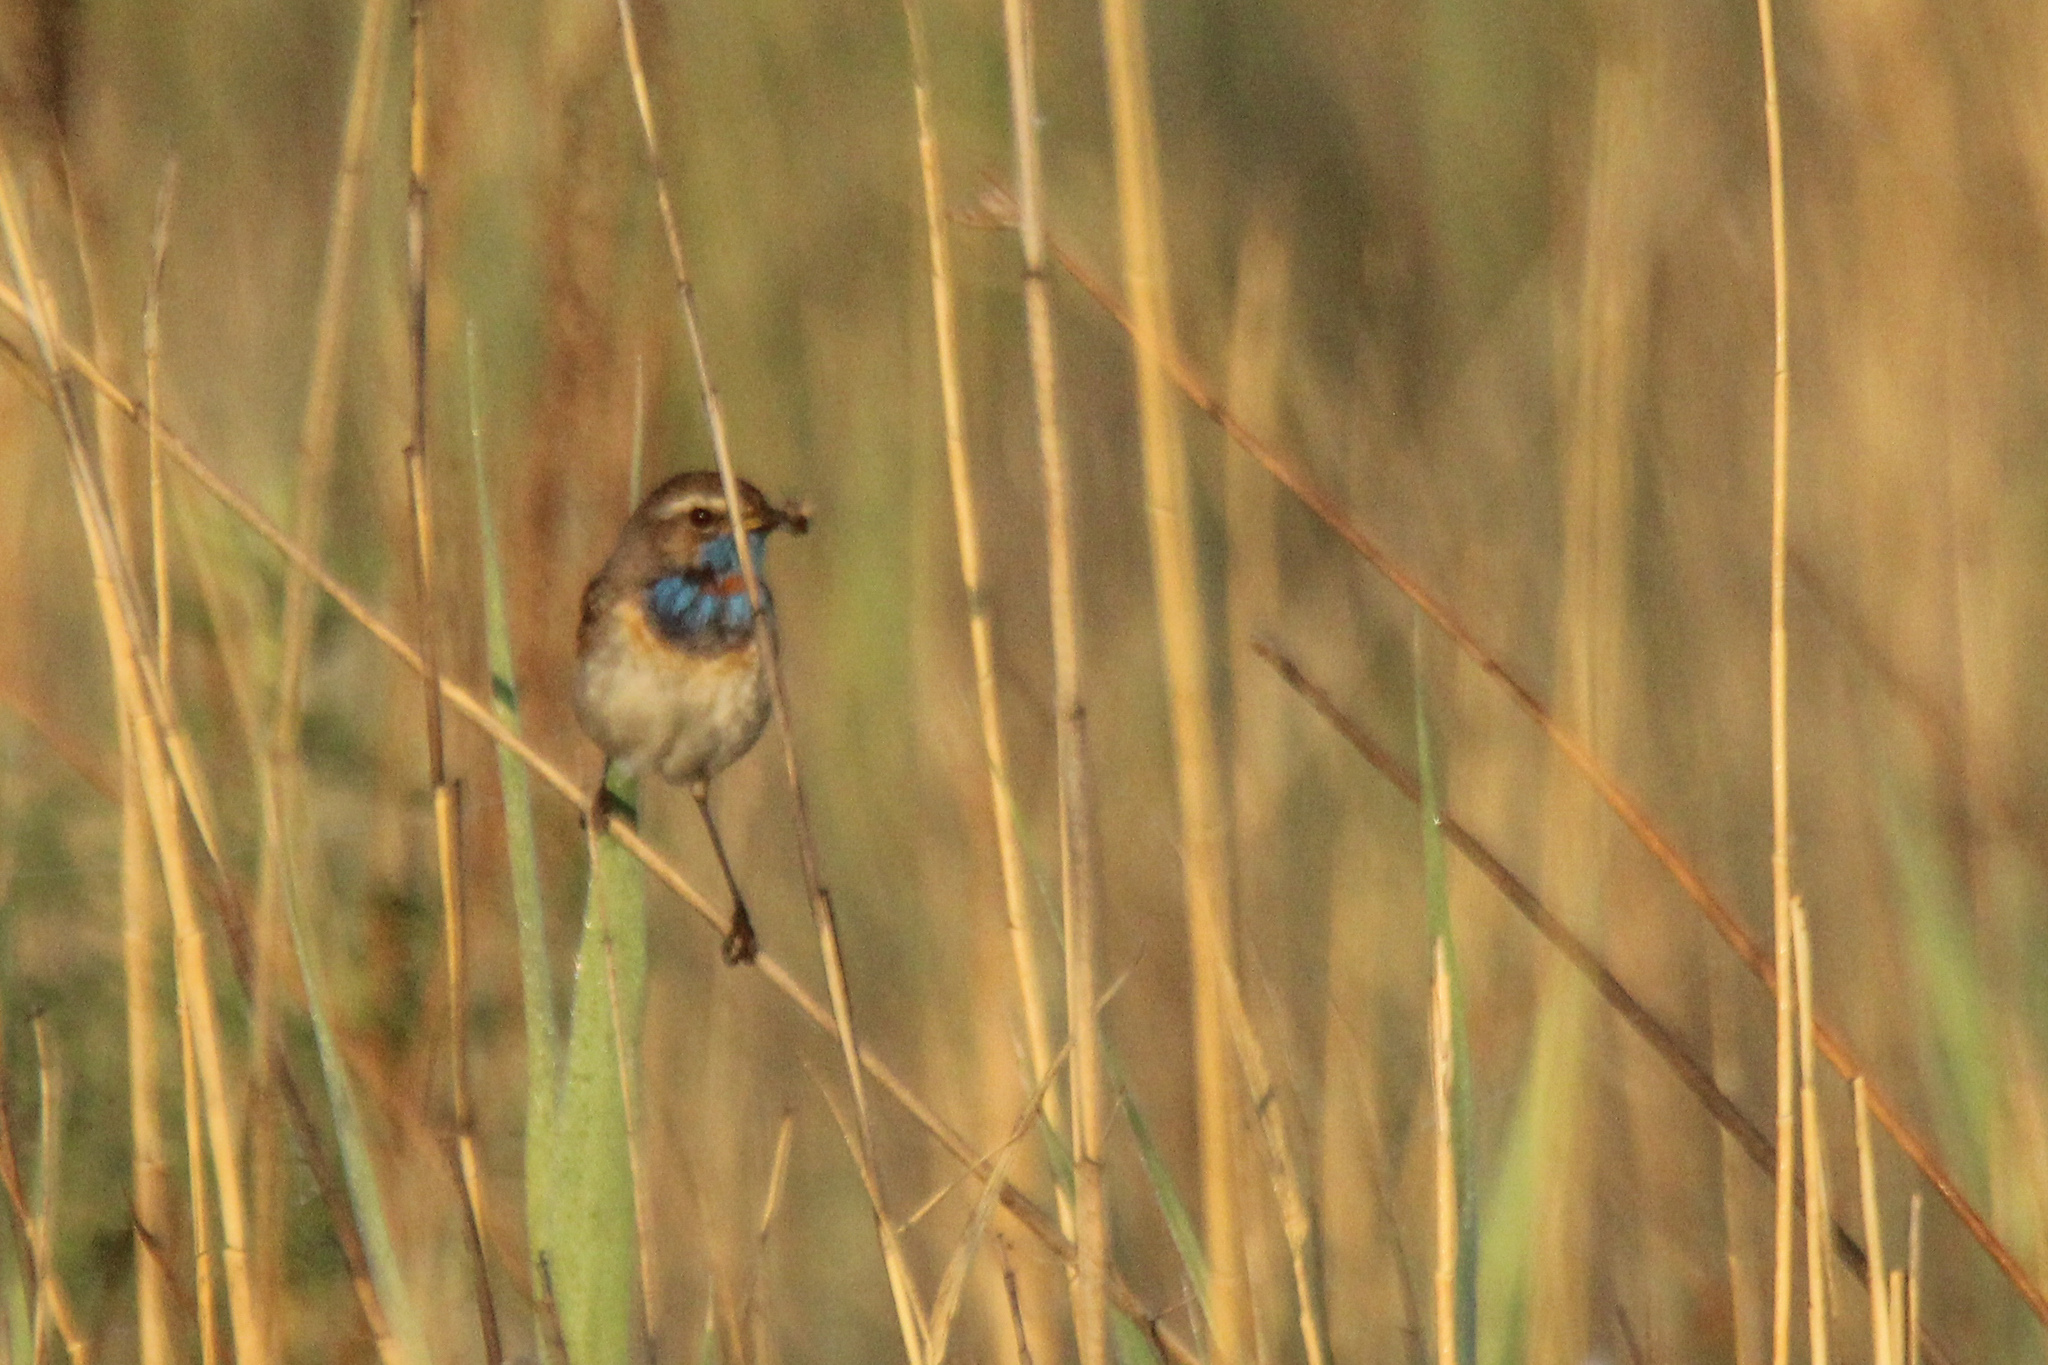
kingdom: Animalia
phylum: Chordata
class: Aves
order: Passeriformes
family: Muscicapidae
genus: Luscinia
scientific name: Luscinia svecica
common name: Bluethroat
